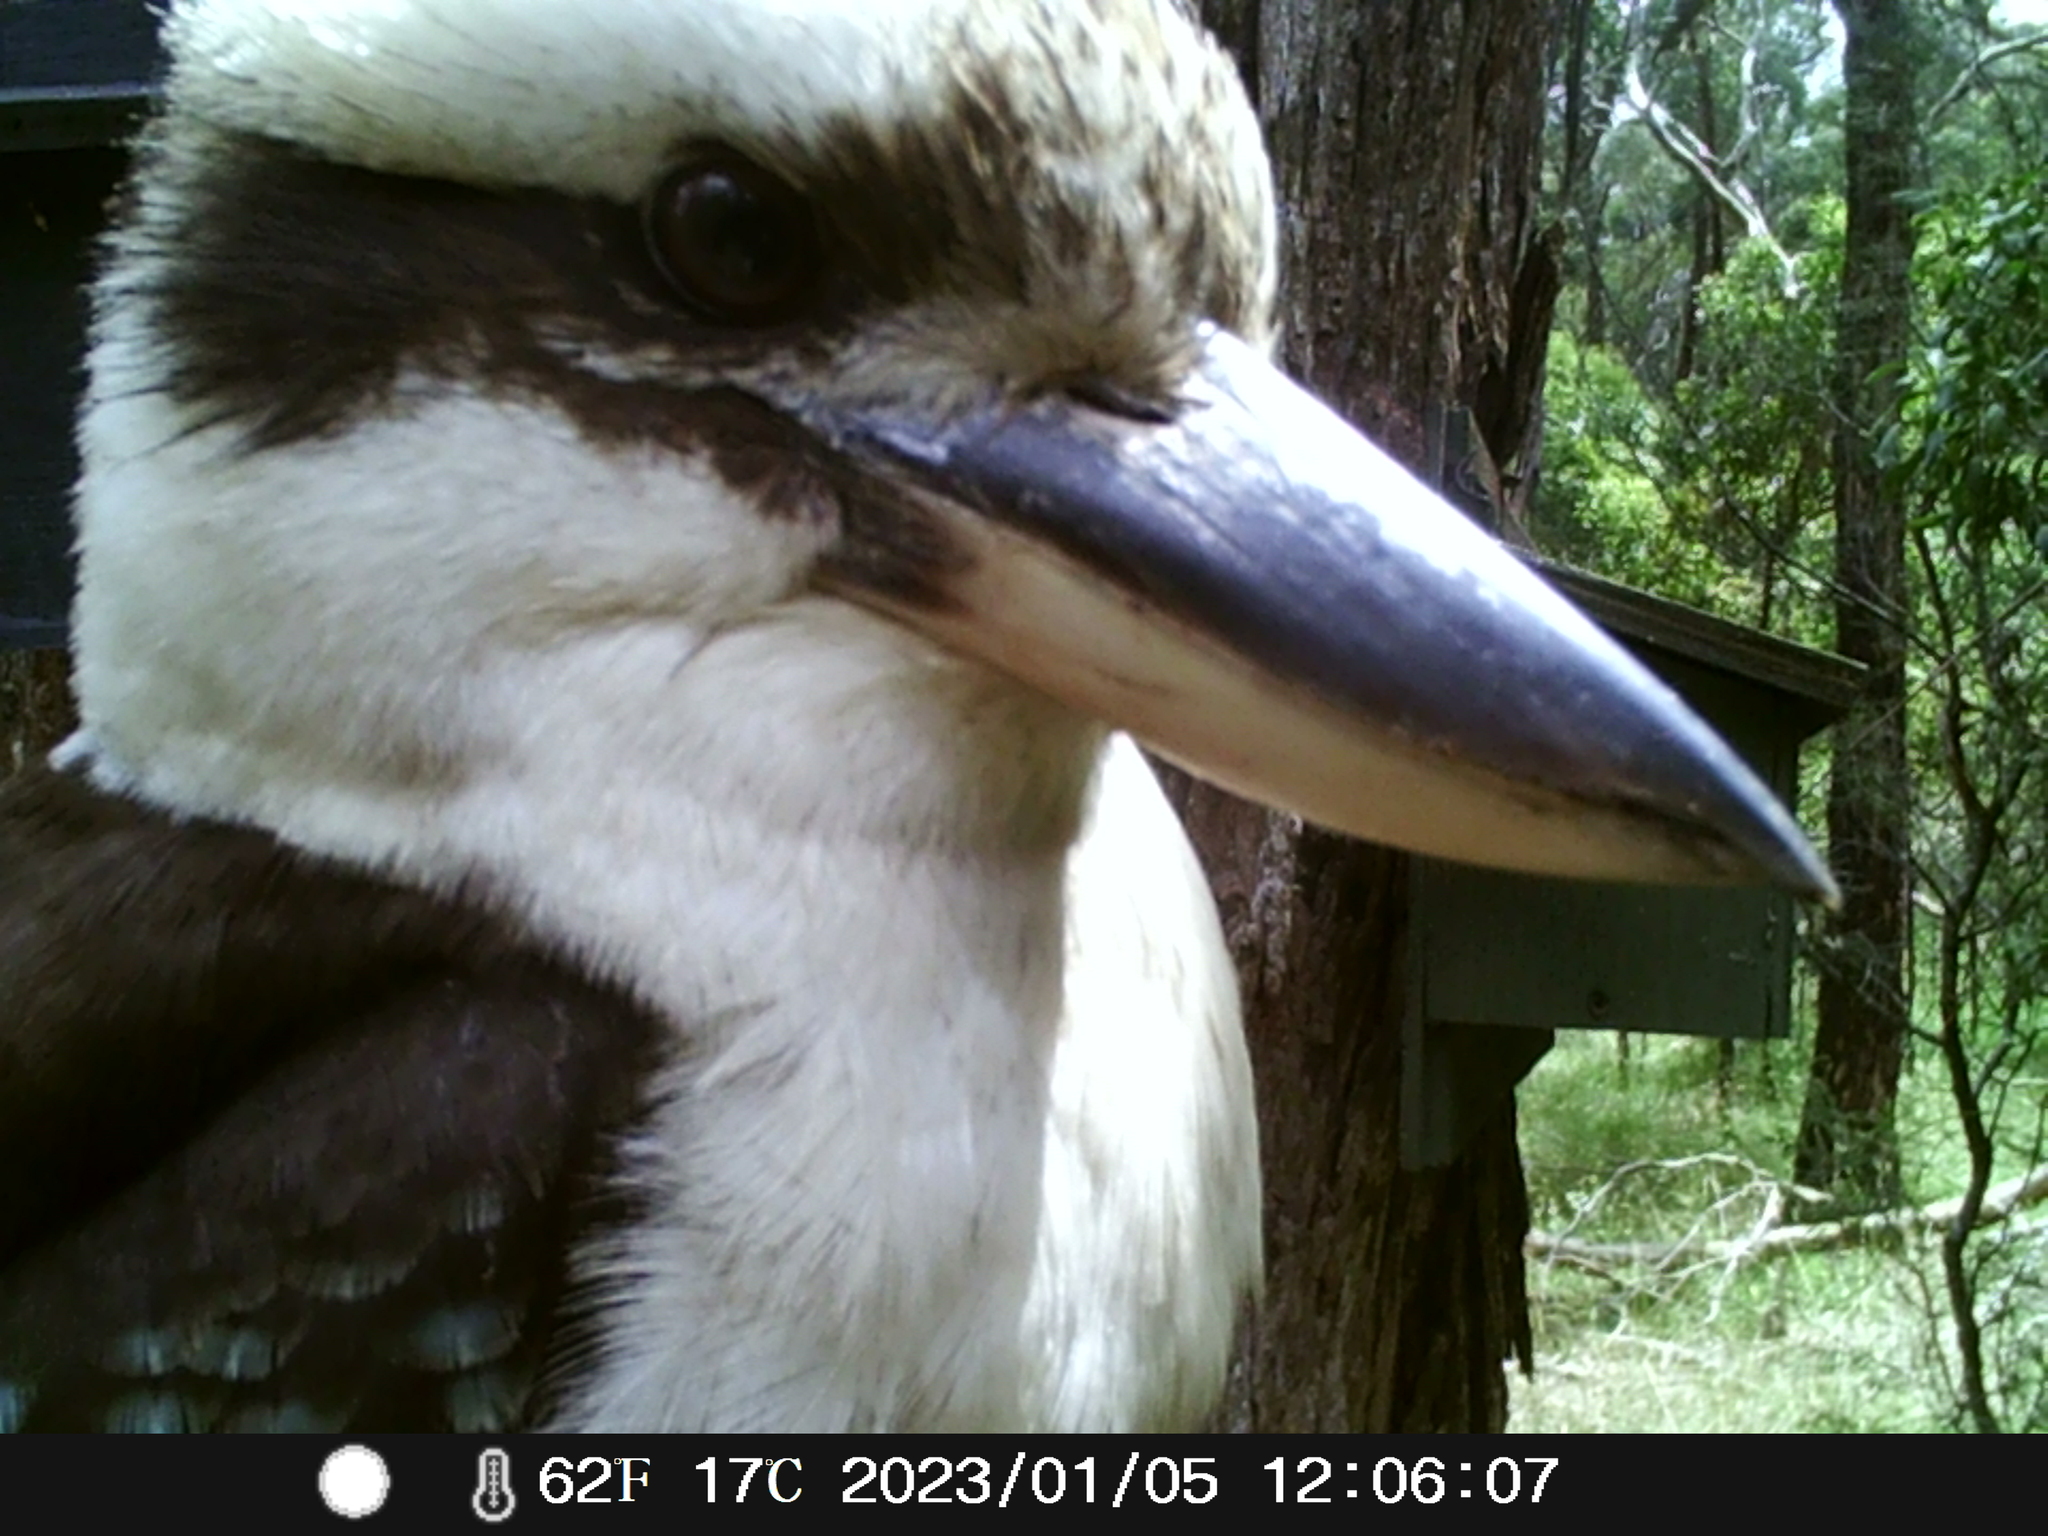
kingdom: Animalia
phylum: Chordata
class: Aves
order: Coraciiformes
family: Alcedinidae
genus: Dacelo
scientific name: Dacelo novaeguineae
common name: Laughing kookaburra
